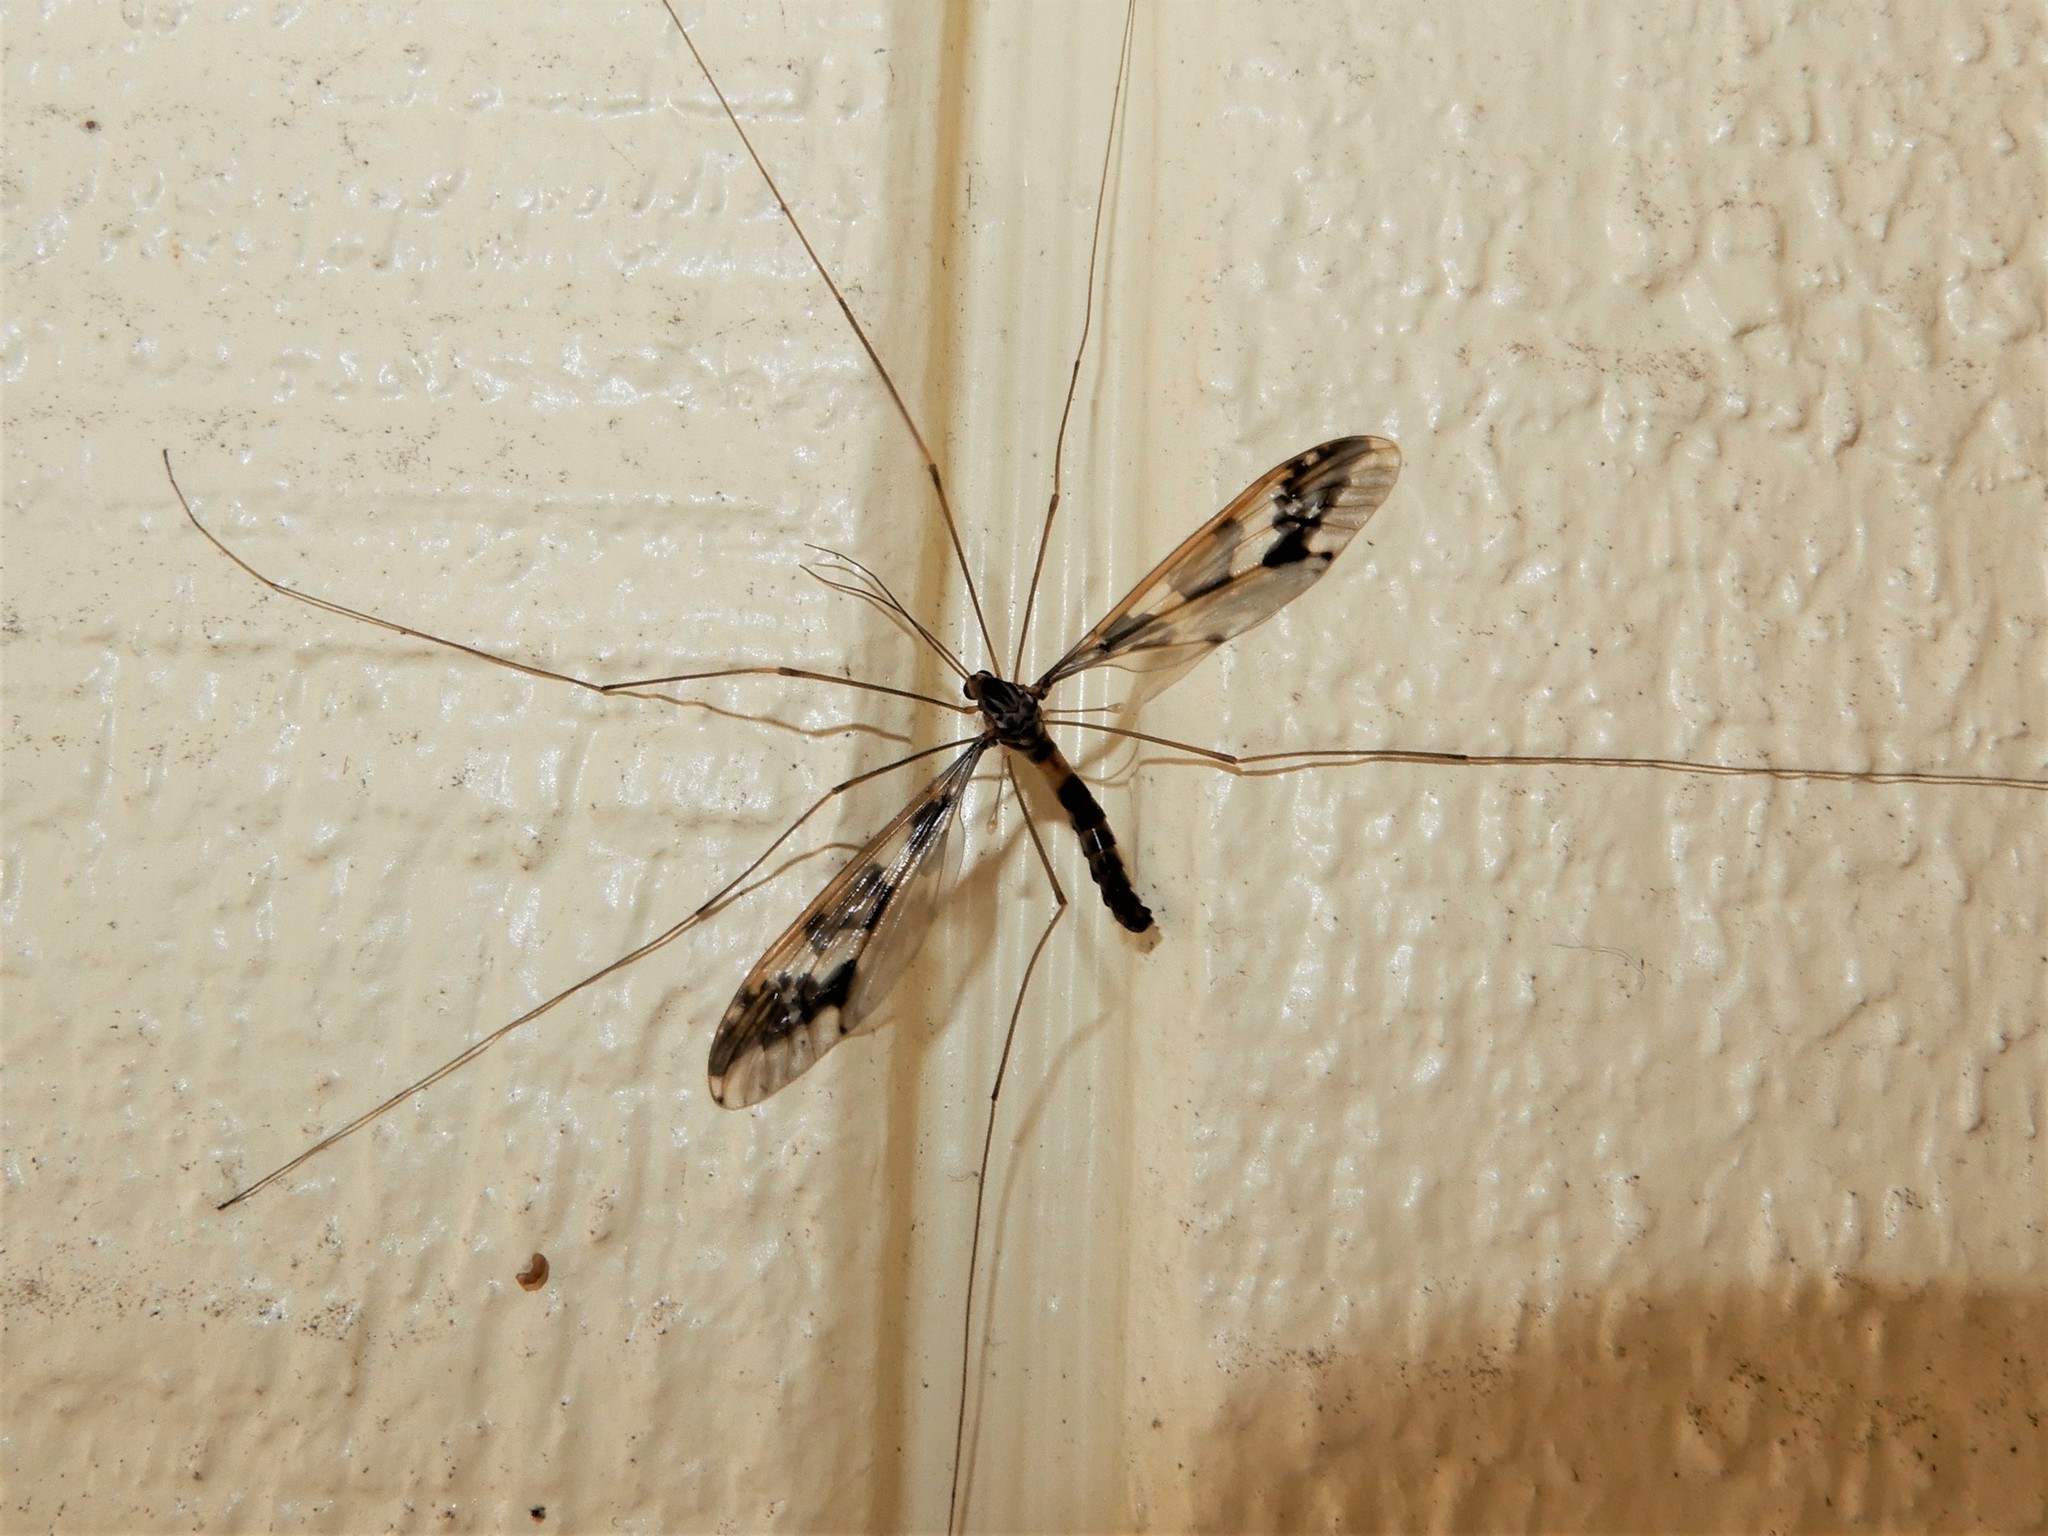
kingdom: Animalia
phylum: Arthropoda
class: Insecta
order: Diptera
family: Tipulidae
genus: Leptotarsus
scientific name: Leptotarsus binotatus
